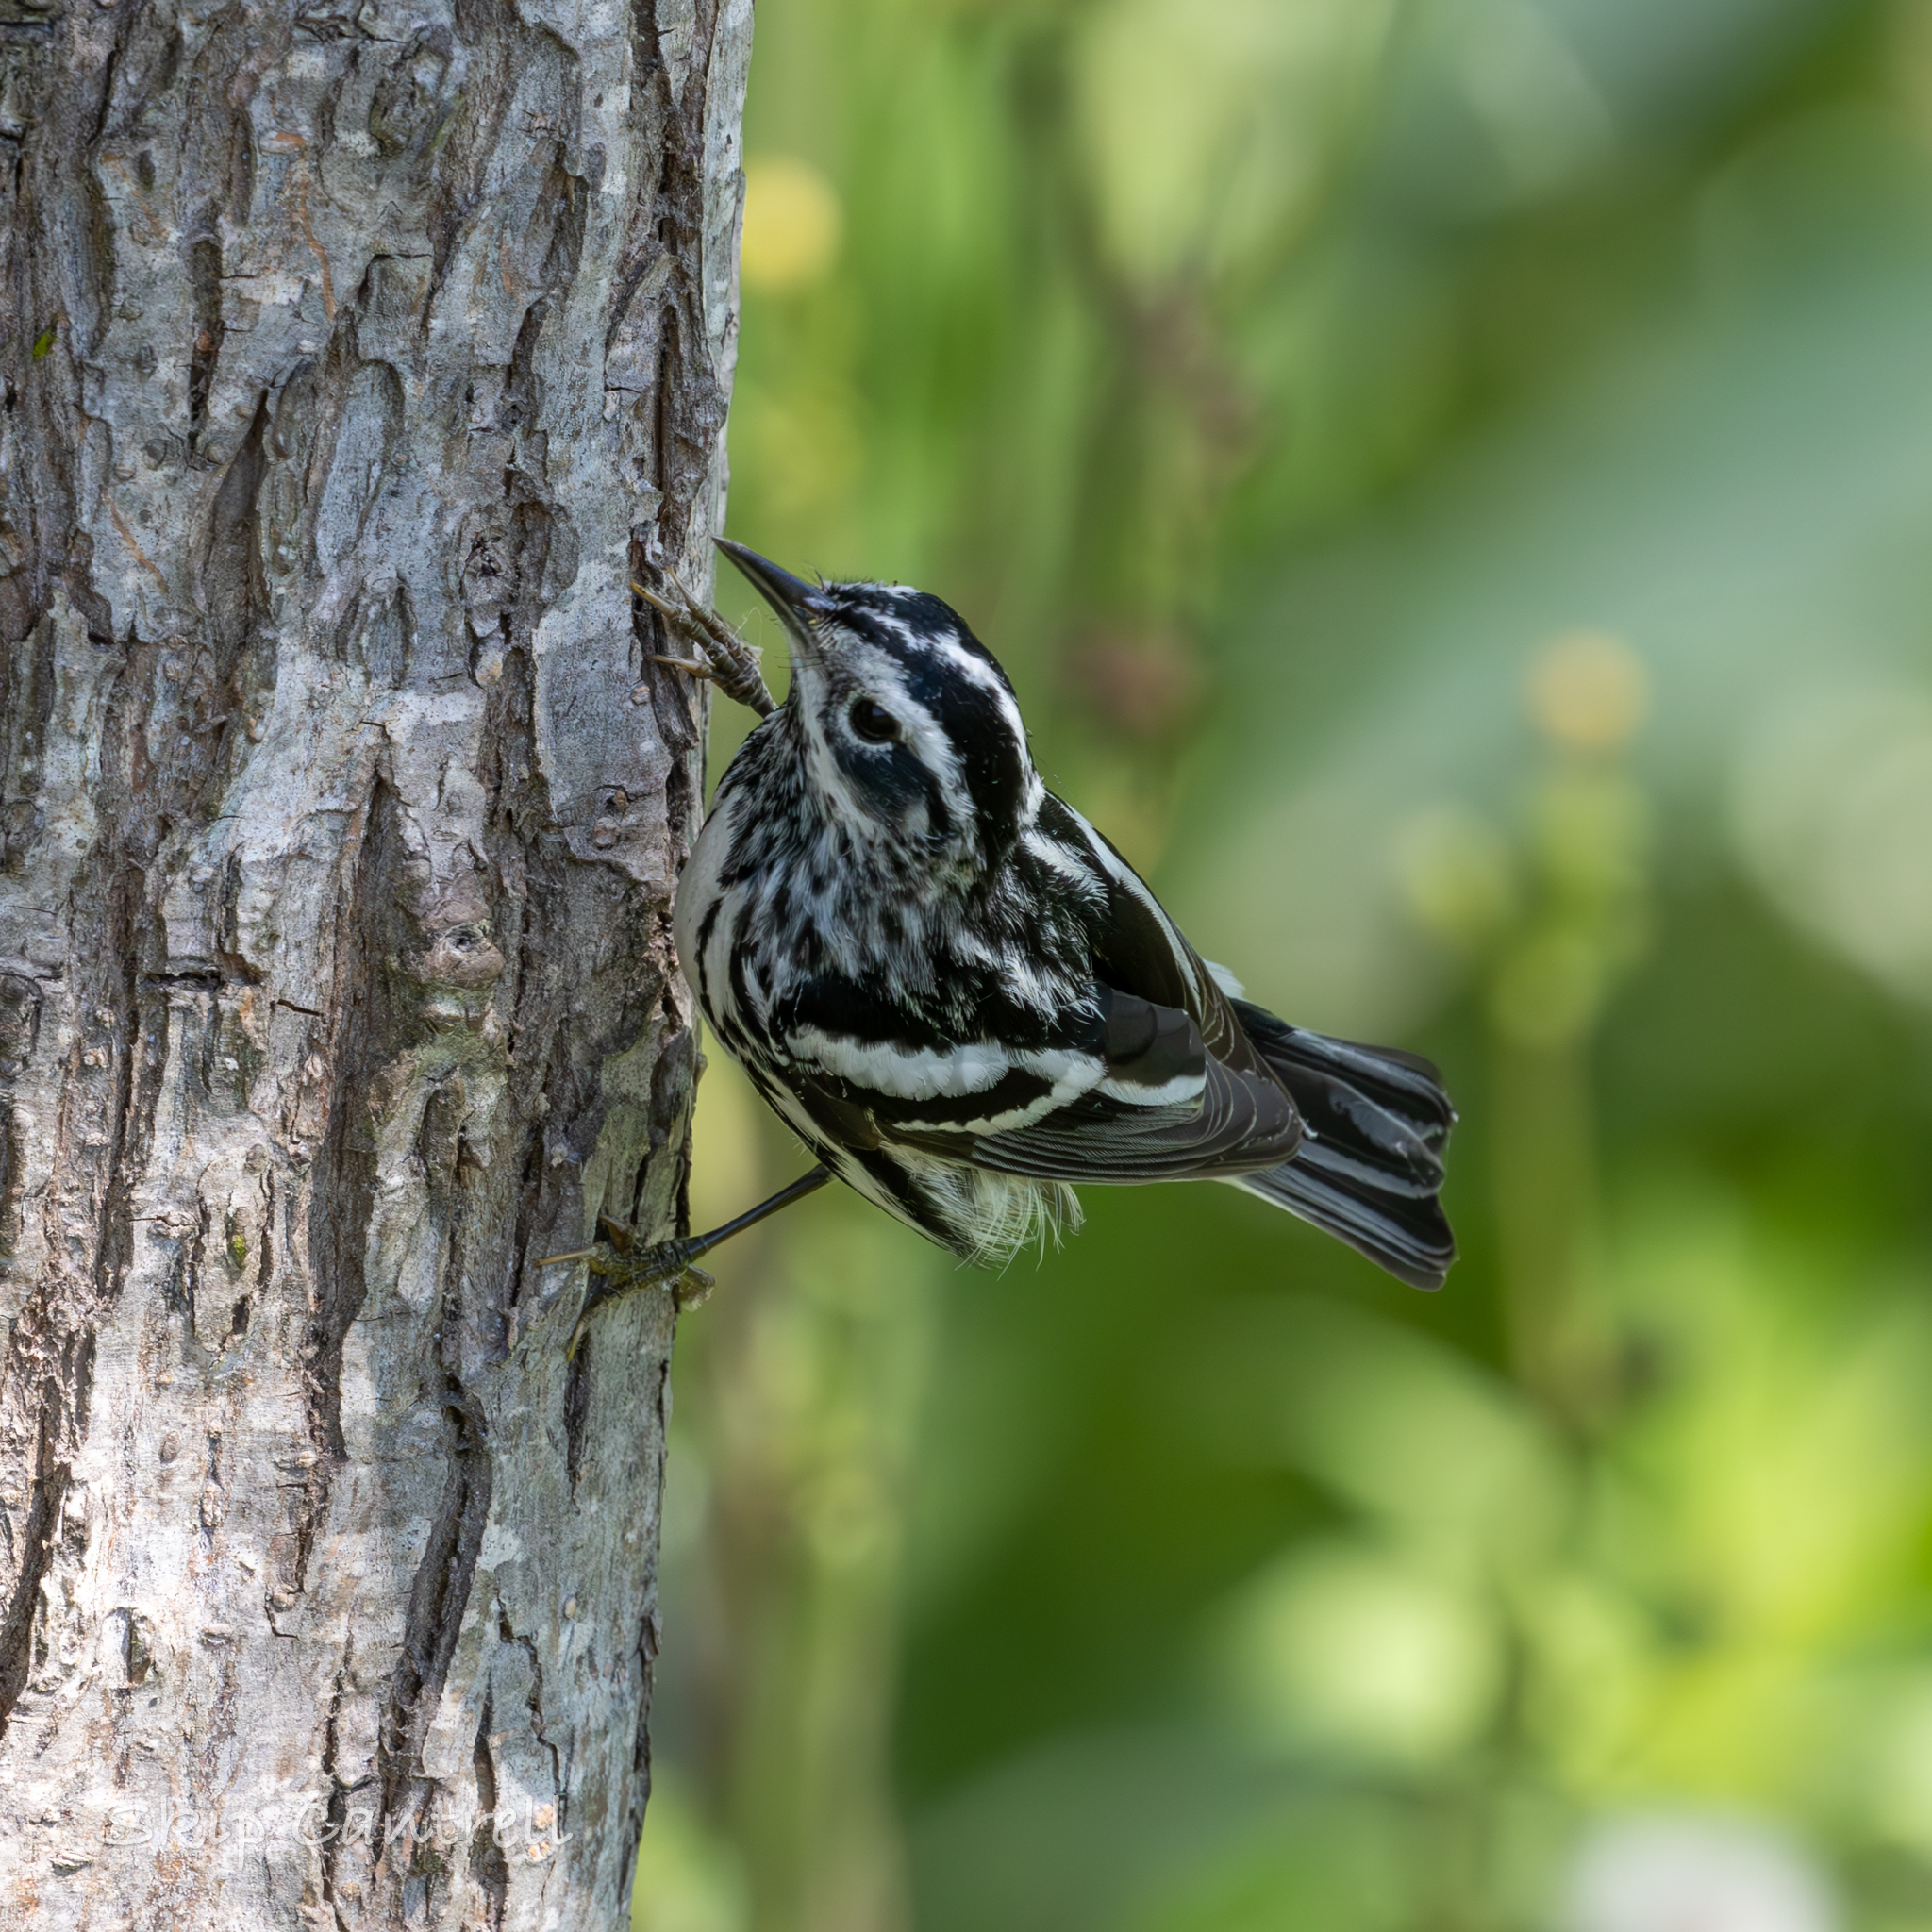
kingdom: Animalia
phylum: Chordata
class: Aves
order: Passeriformes
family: Parulidae
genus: Mniotilta
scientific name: Mniotilta varia
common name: Black-and-white warbler
